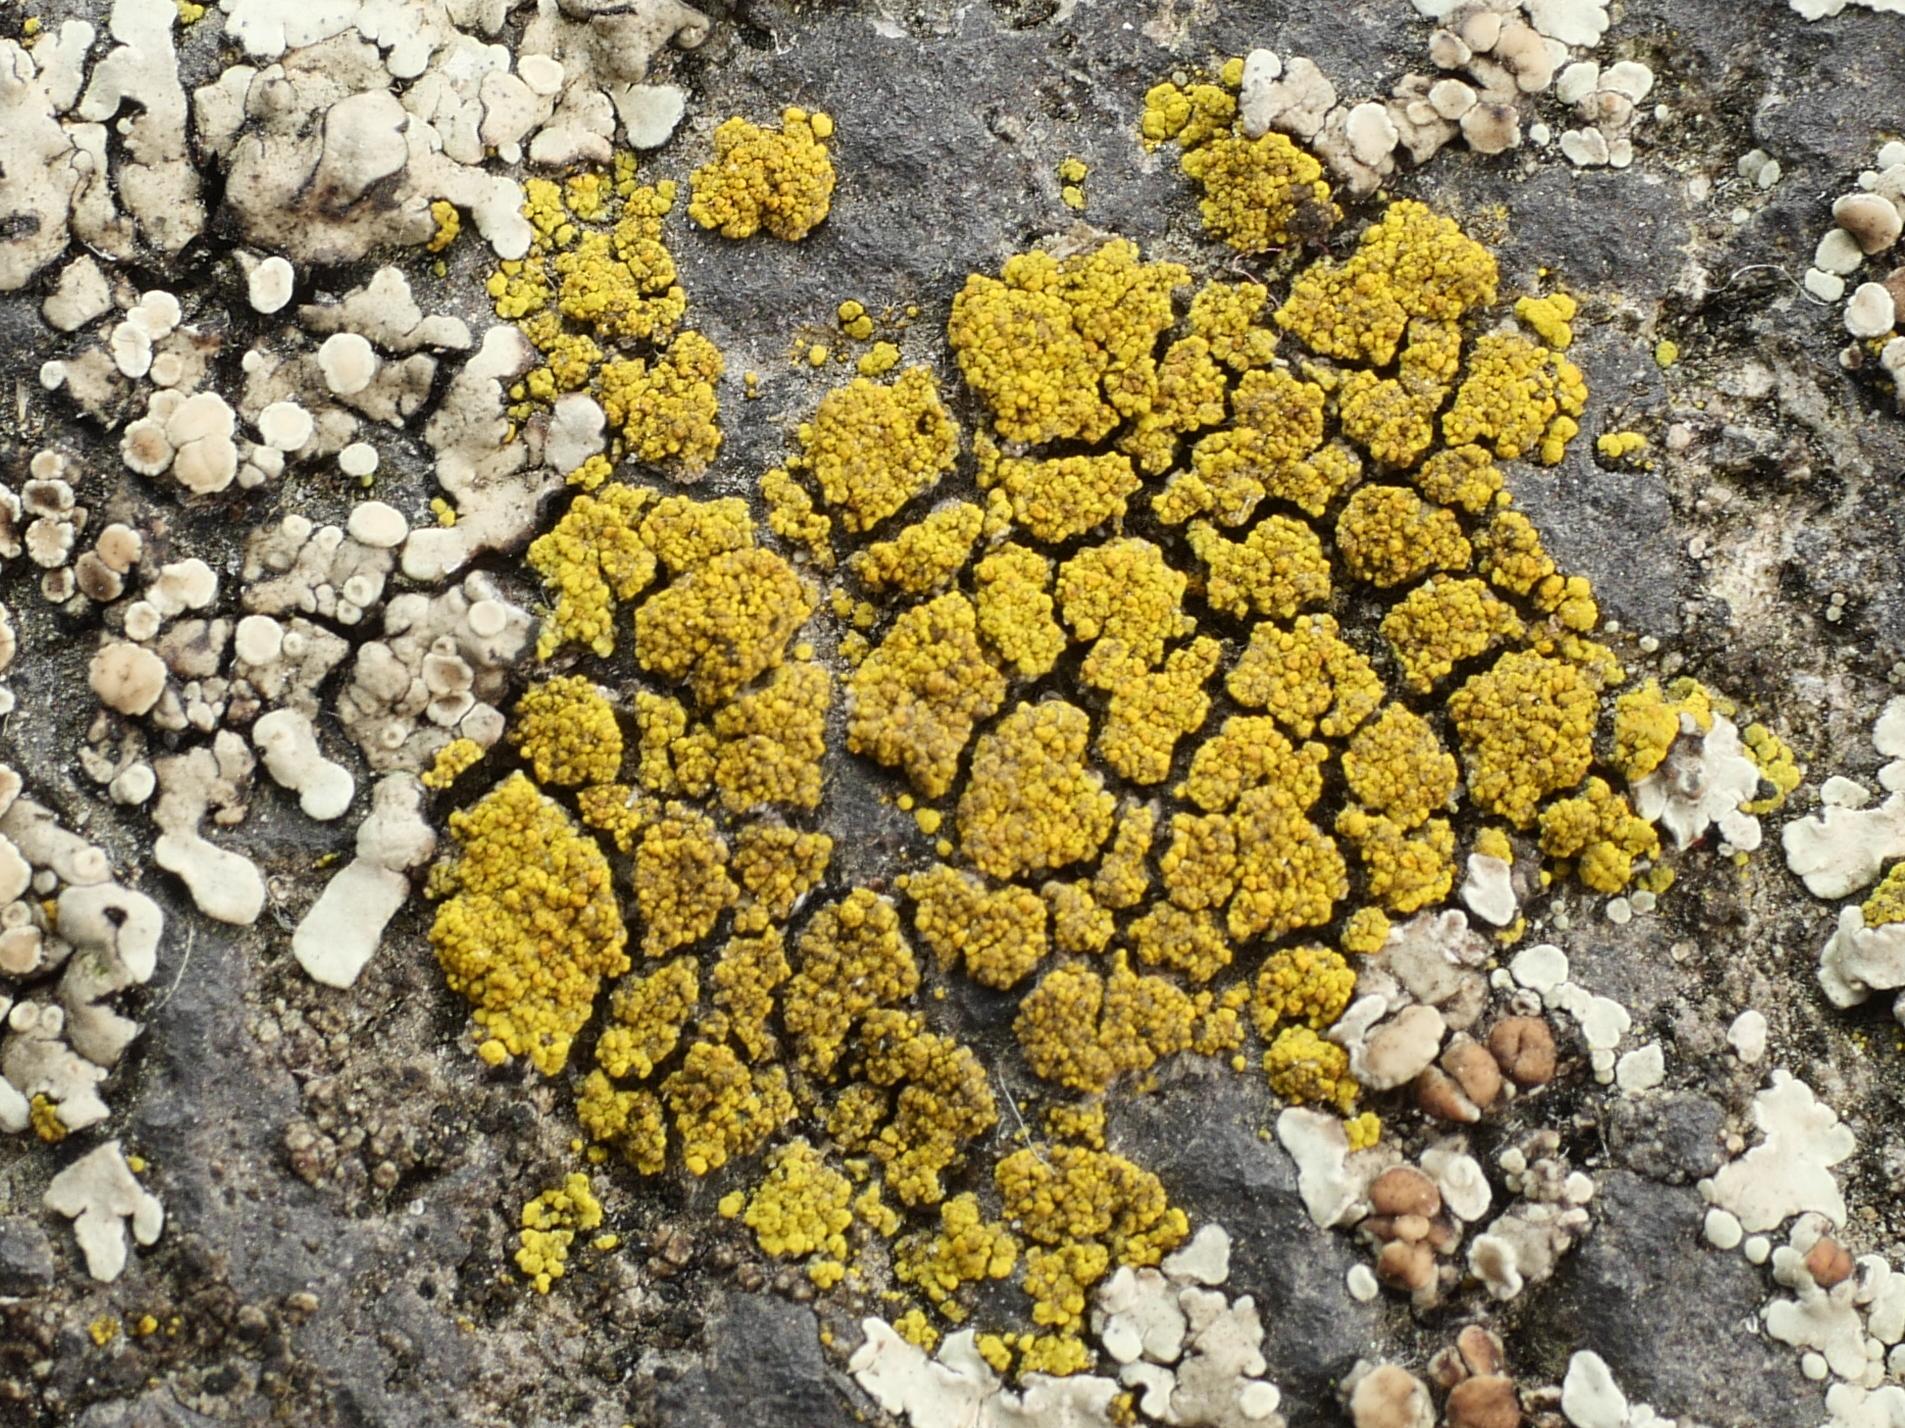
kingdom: Fungi
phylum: Ascomycota
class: Candelariomycetes
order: Candelariales
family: Candelariaceae
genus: Candelariella
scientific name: Candelariella vitellina
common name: Common goldspeck
